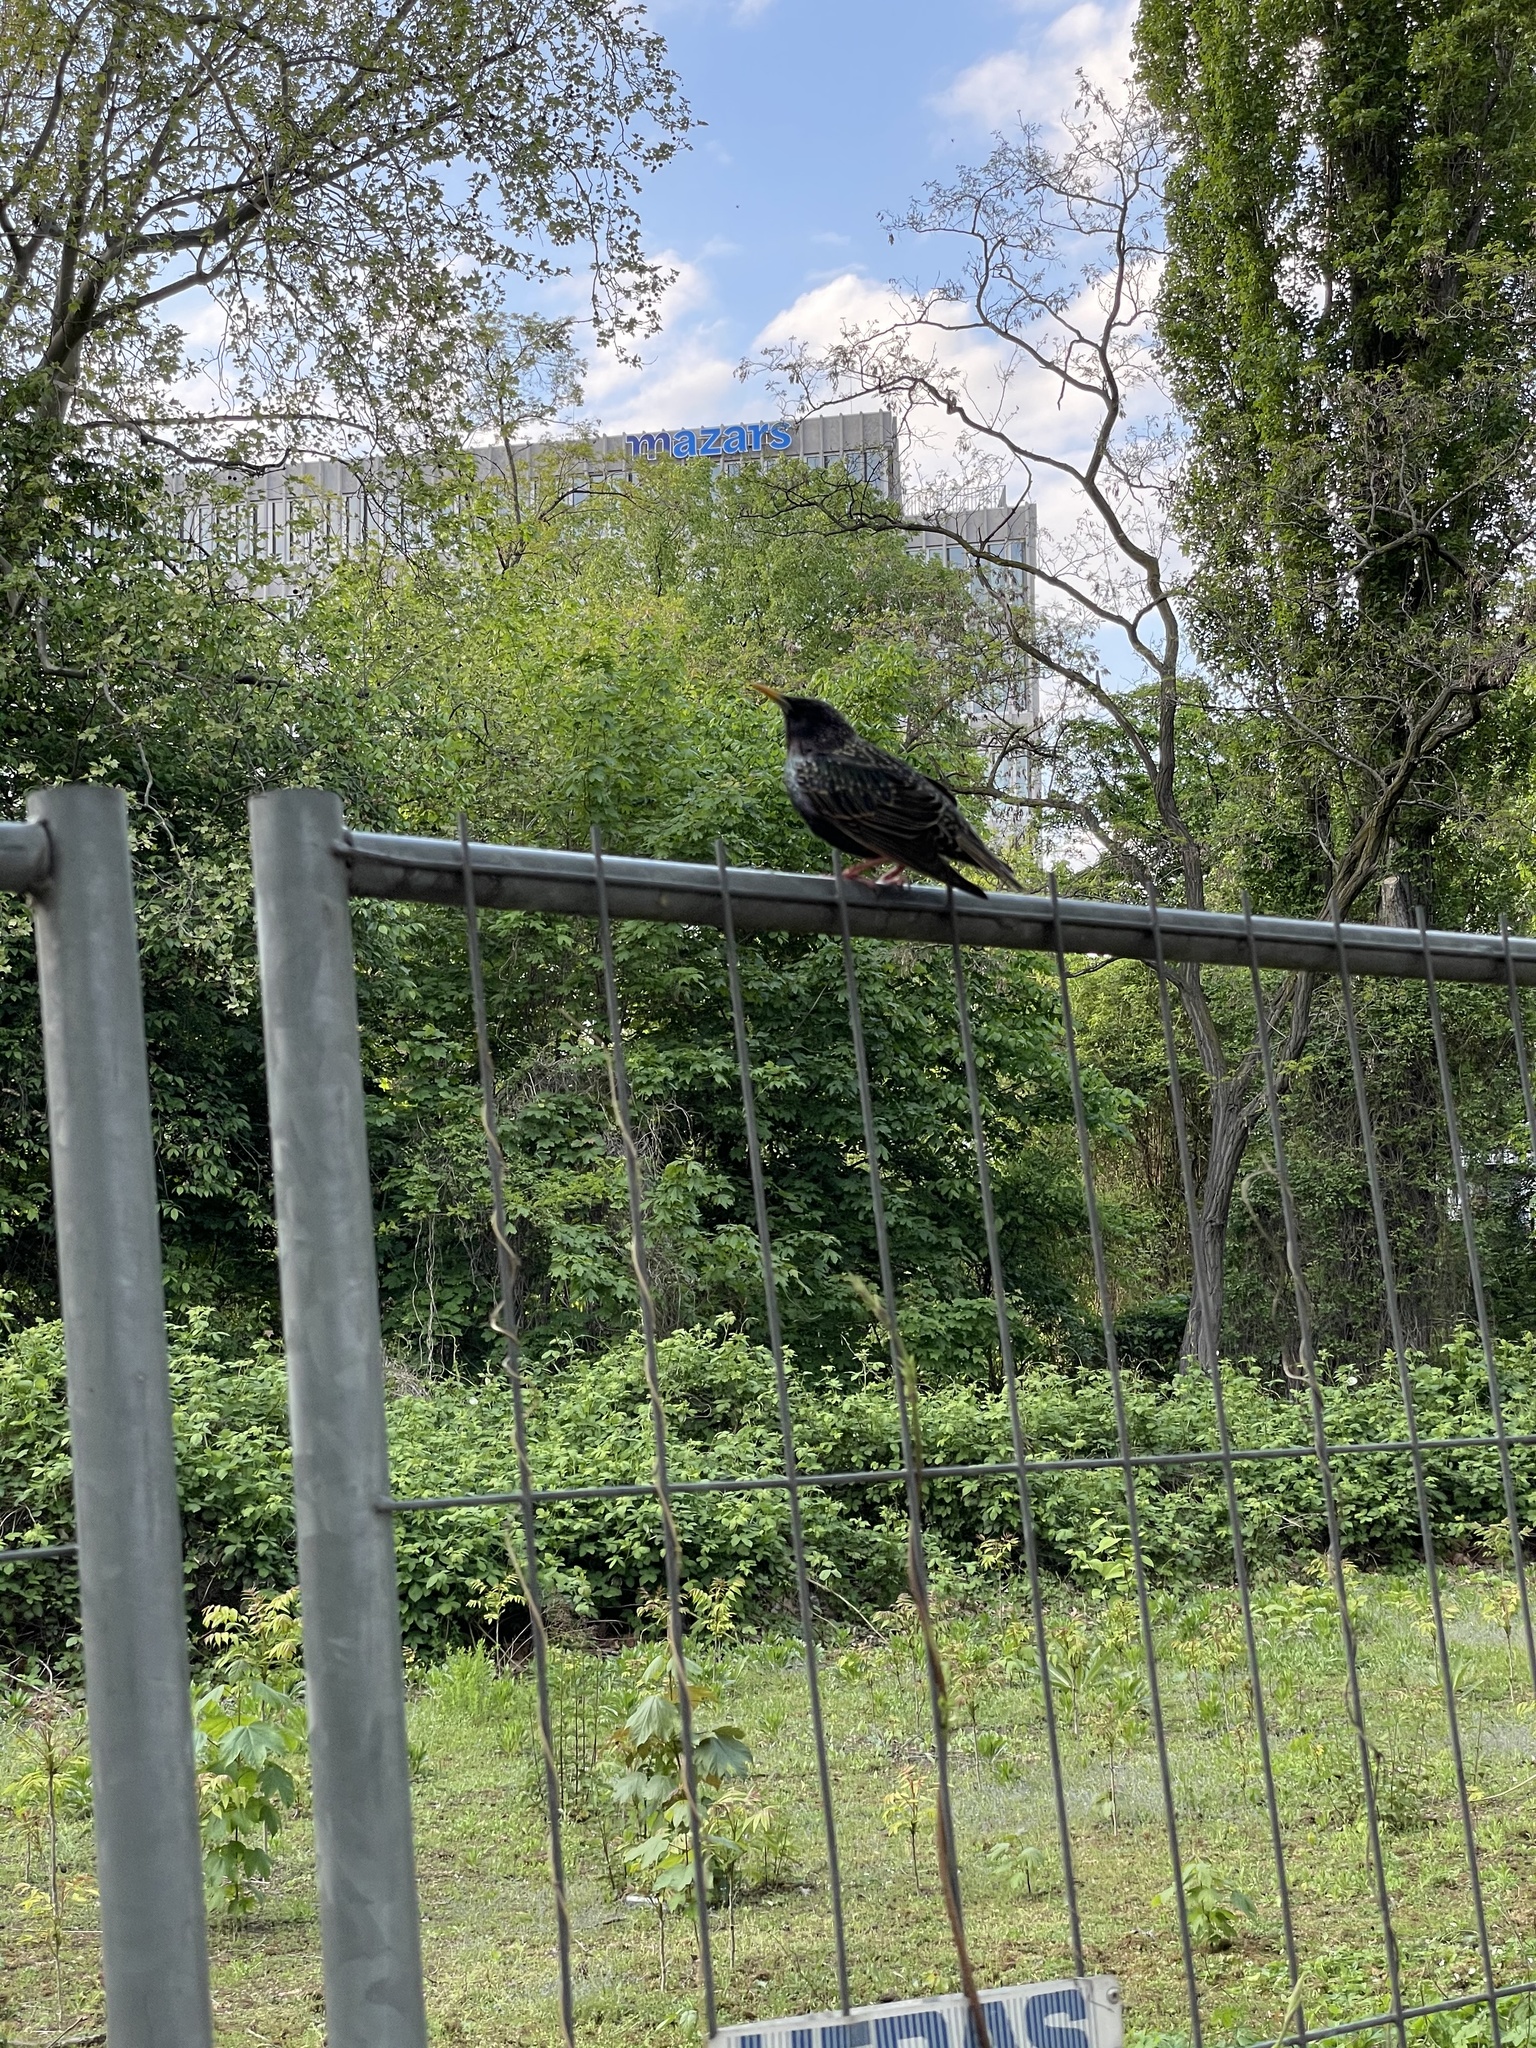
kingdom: Animalia
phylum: Chordata
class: Aves
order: Passeriformes
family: Sturnidae
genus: Sturnus
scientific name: Sturnus vulgaris
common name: Common starling
